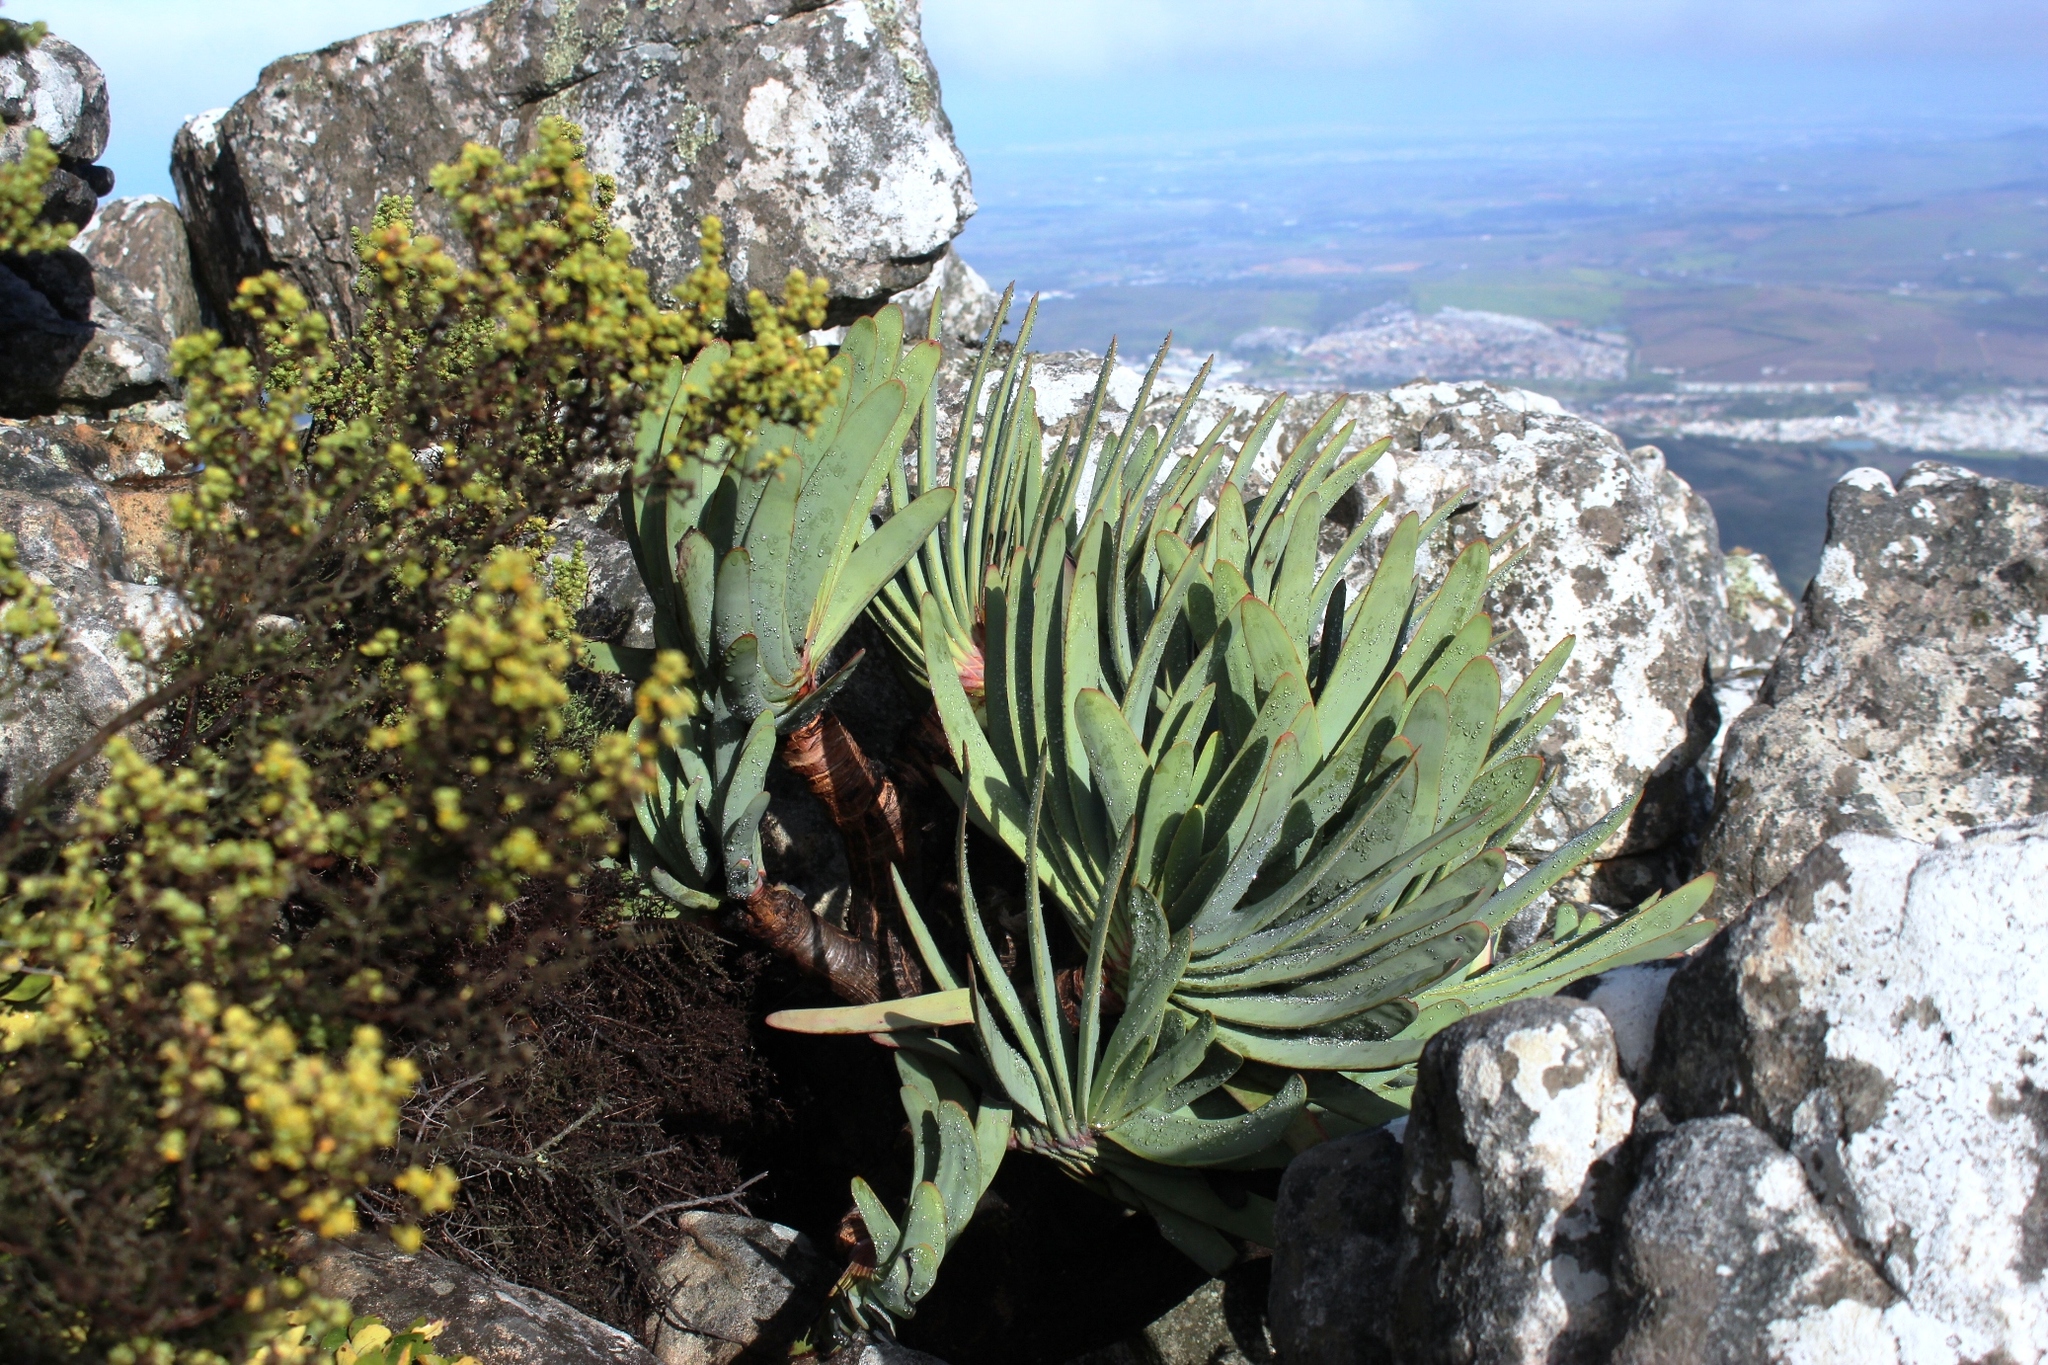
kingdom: Plantae
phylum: Tracheophyta
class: Liliopsida
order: Asparagales
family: Asphodelaceae
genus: Kumara
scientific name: Kumara plicatilis
